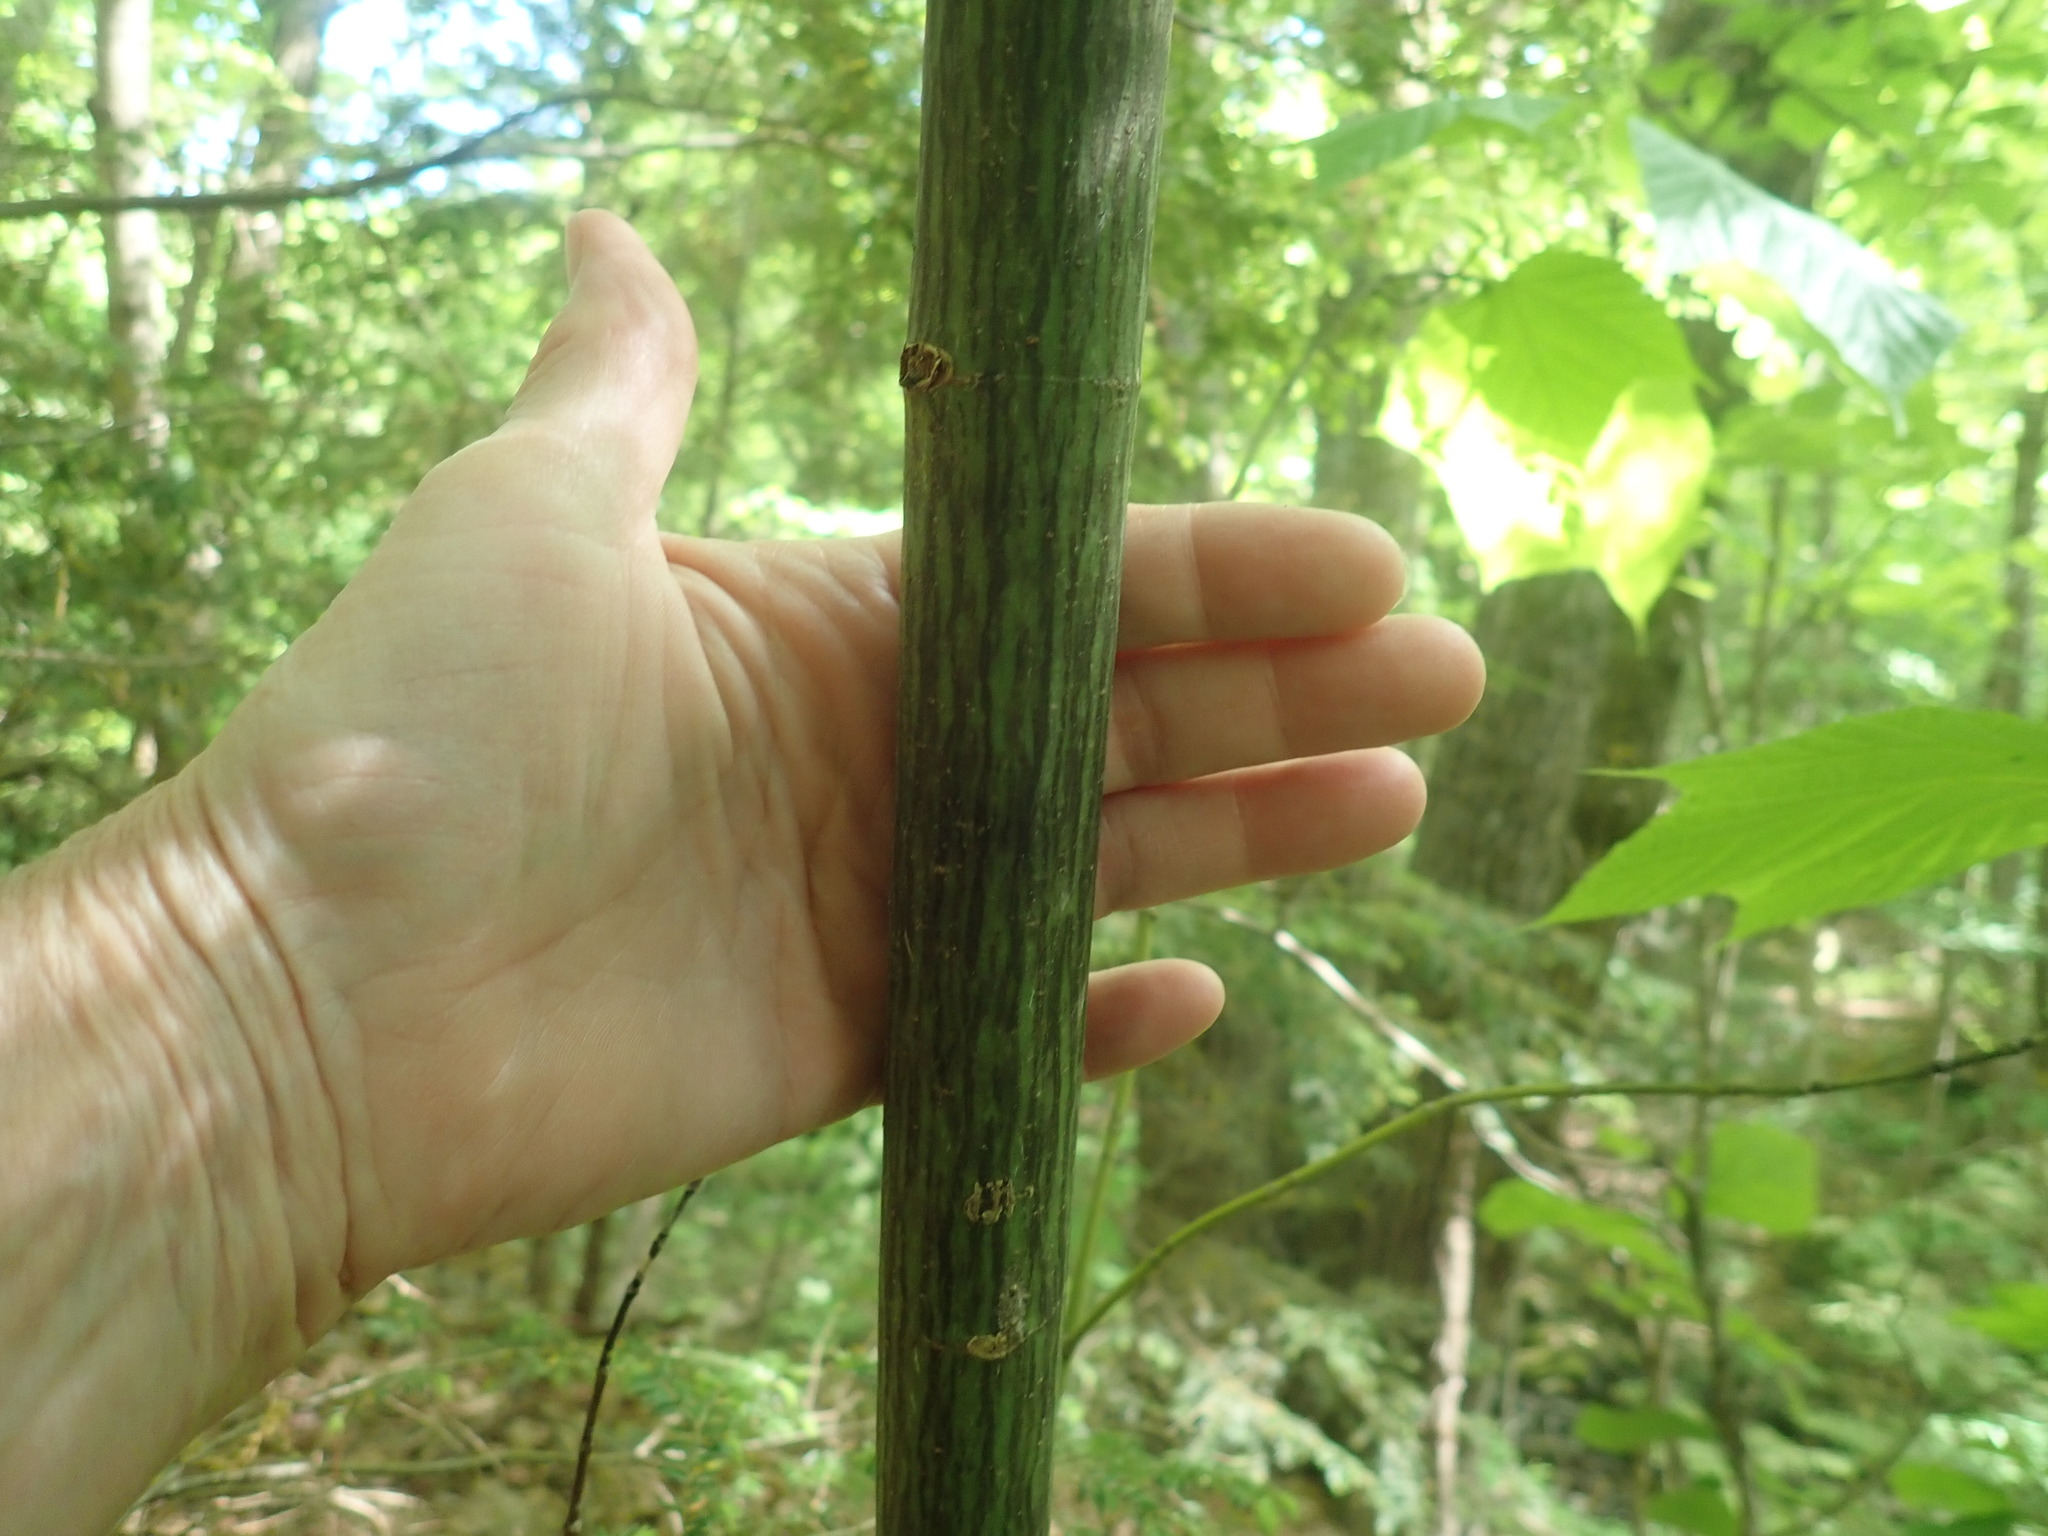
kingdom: Plantae
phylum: Tracheophyta
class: Magnoliopsida
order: Sapindales
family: Sapindaceae
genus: Acer
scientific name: Acer pensylvanicum
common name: Moosewood
